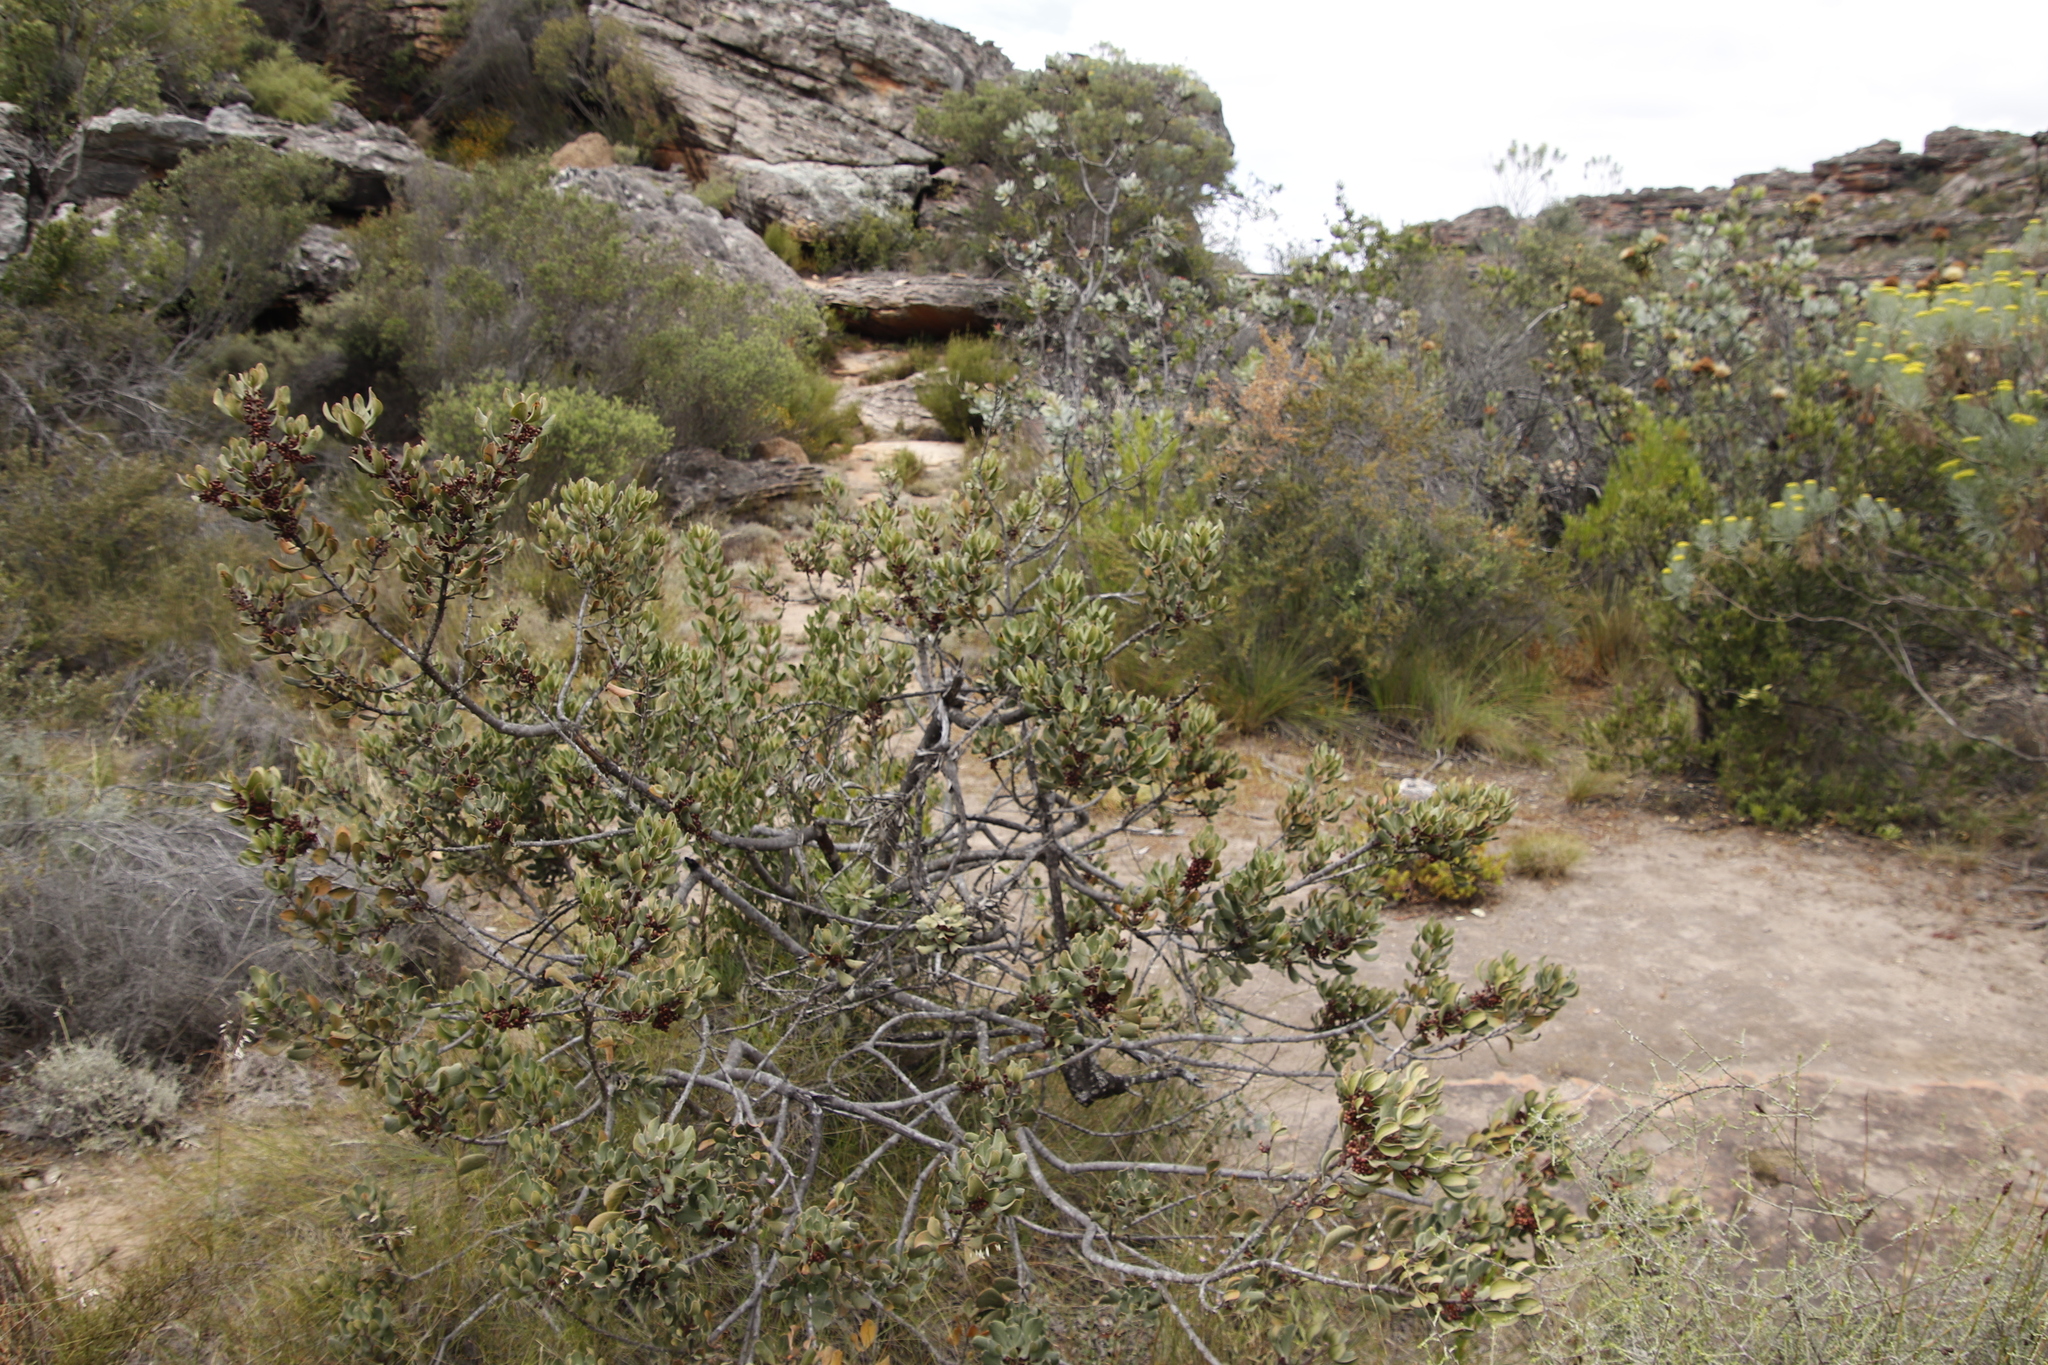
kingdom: Plantae
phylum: Tracheophyta
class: Magnoliopsida
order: Sapindales
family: Anacardiaceae
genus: Searsia
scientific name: Searsia scytophylla
